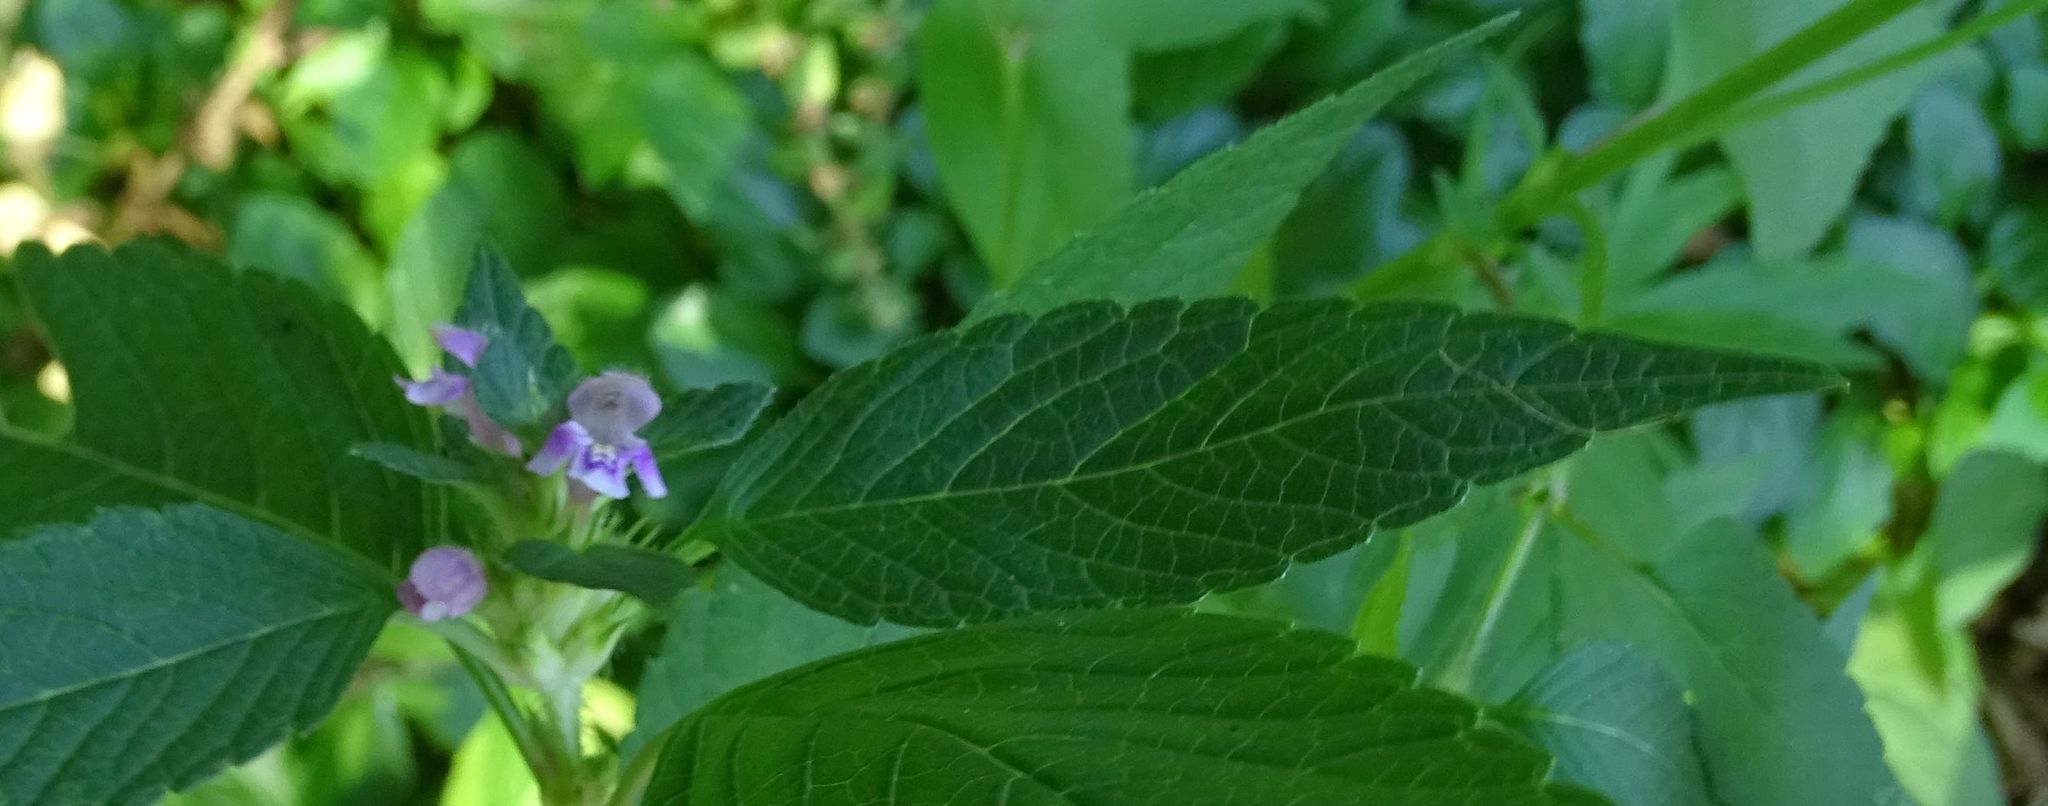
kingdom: Plantae
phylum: Tracheophyta
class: Magnoliopsida
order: Lamiales
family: Lamiaceae
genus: Galeopsis
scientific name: Galeopsis tetrahit
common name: Common hemp-nettle
